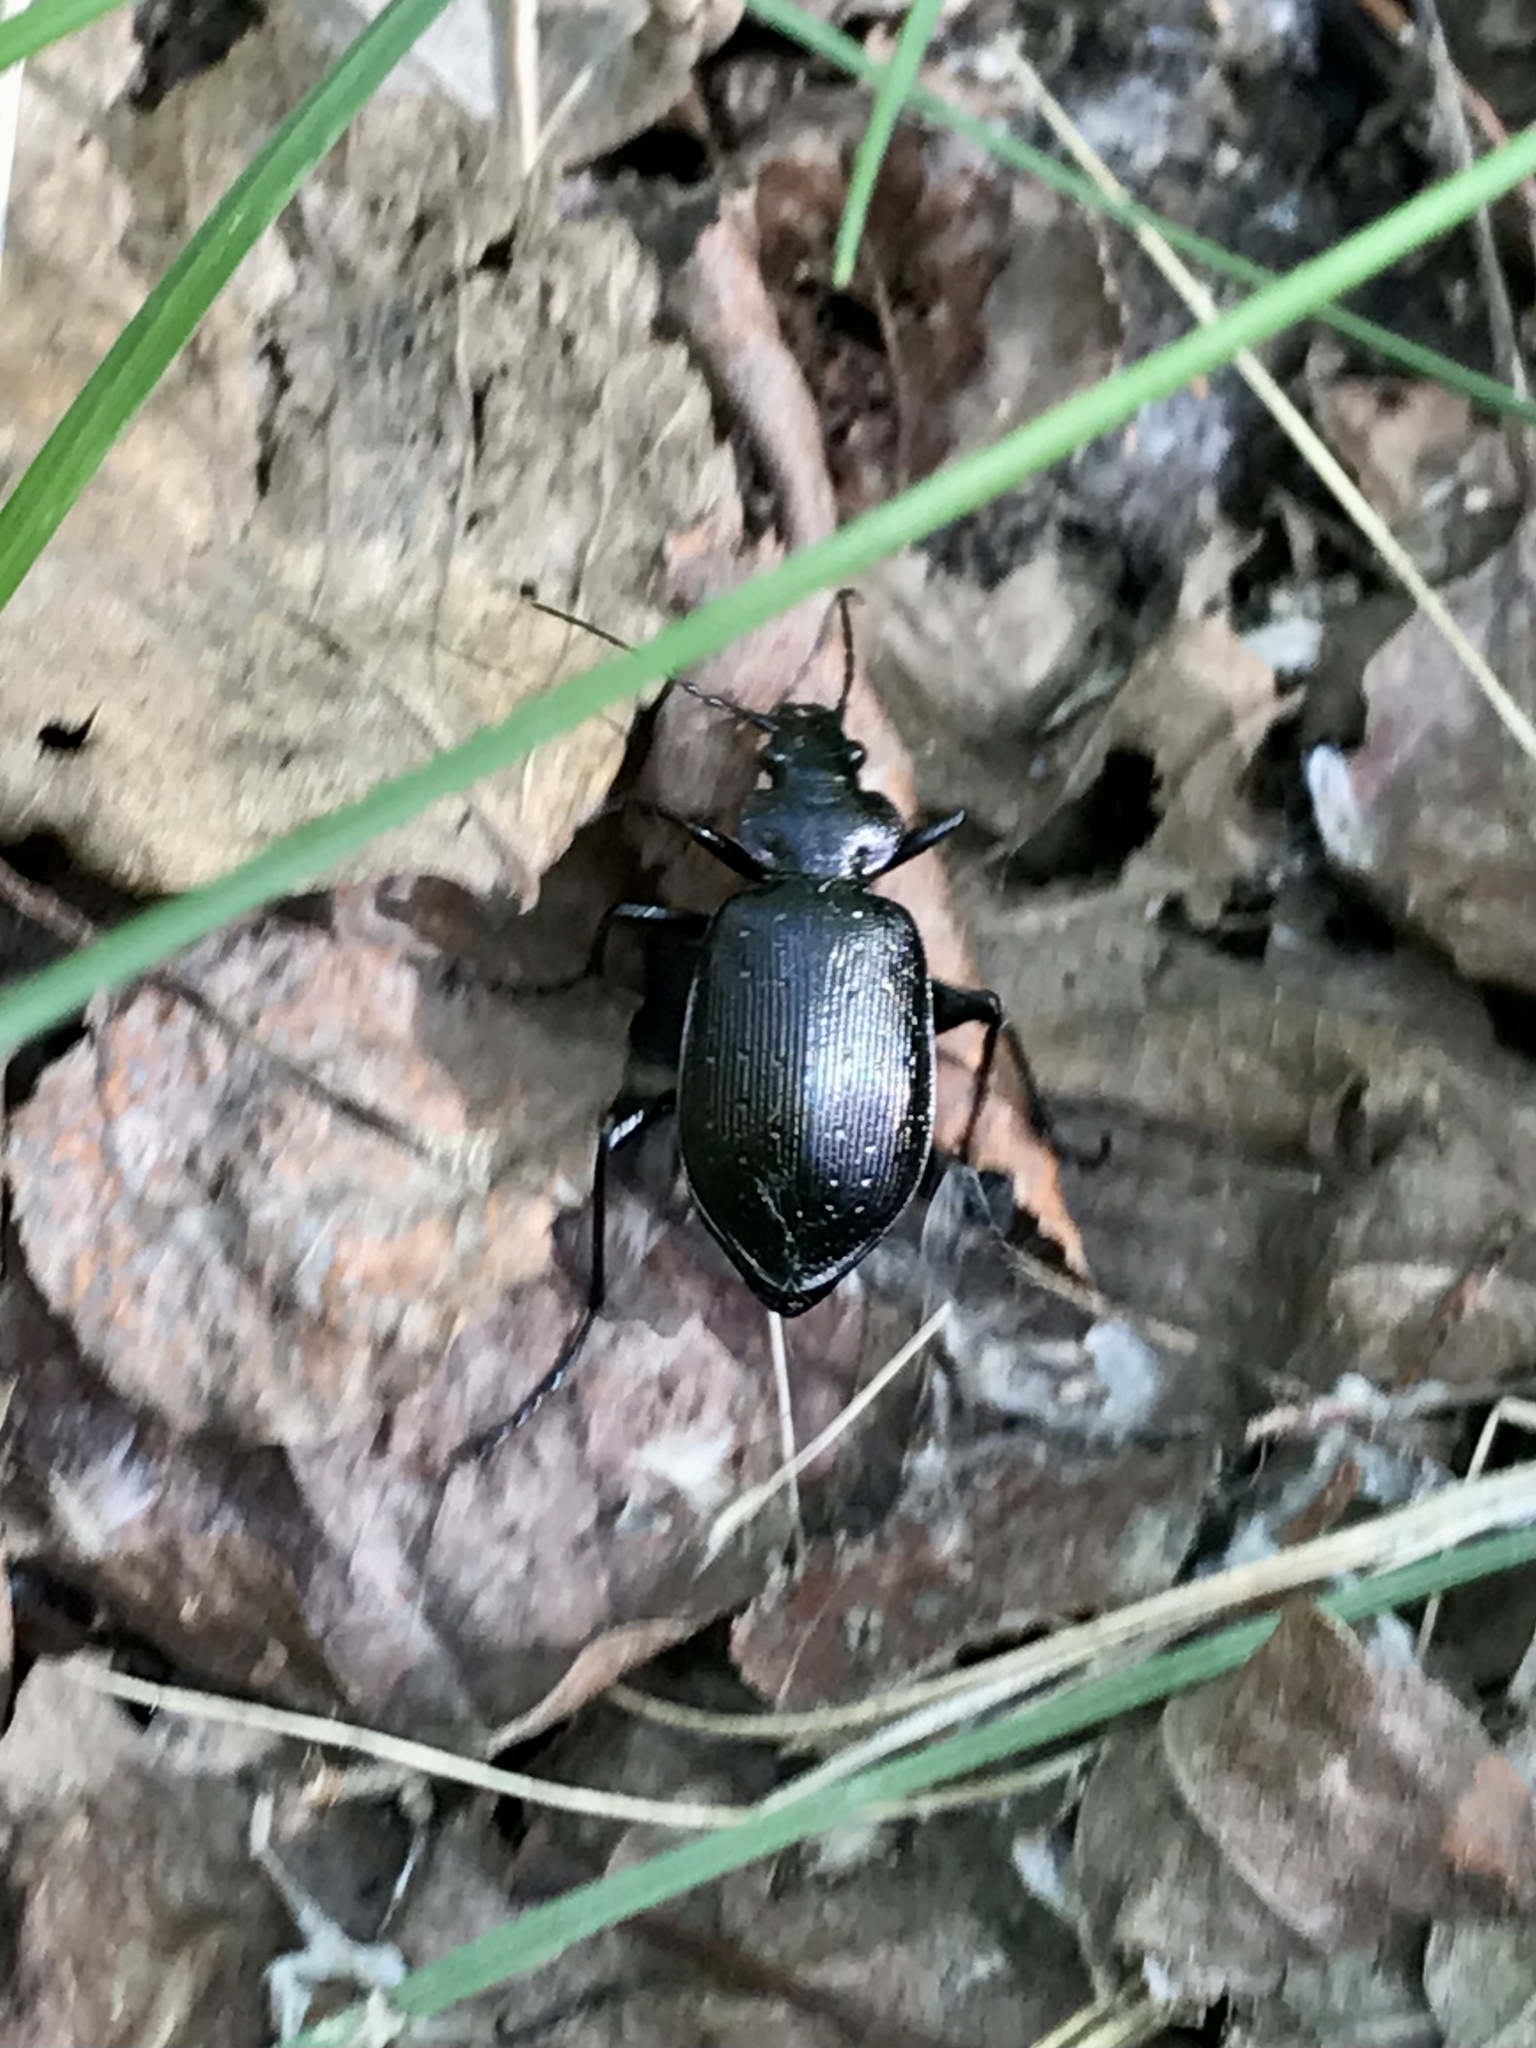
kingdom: Animalia
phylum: Arthropoda
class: Insecta
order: Coleoptera
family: Carabidae
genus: Calosoma
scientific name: Calosoma frigidum
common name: Cold-country caterpillar hunter
